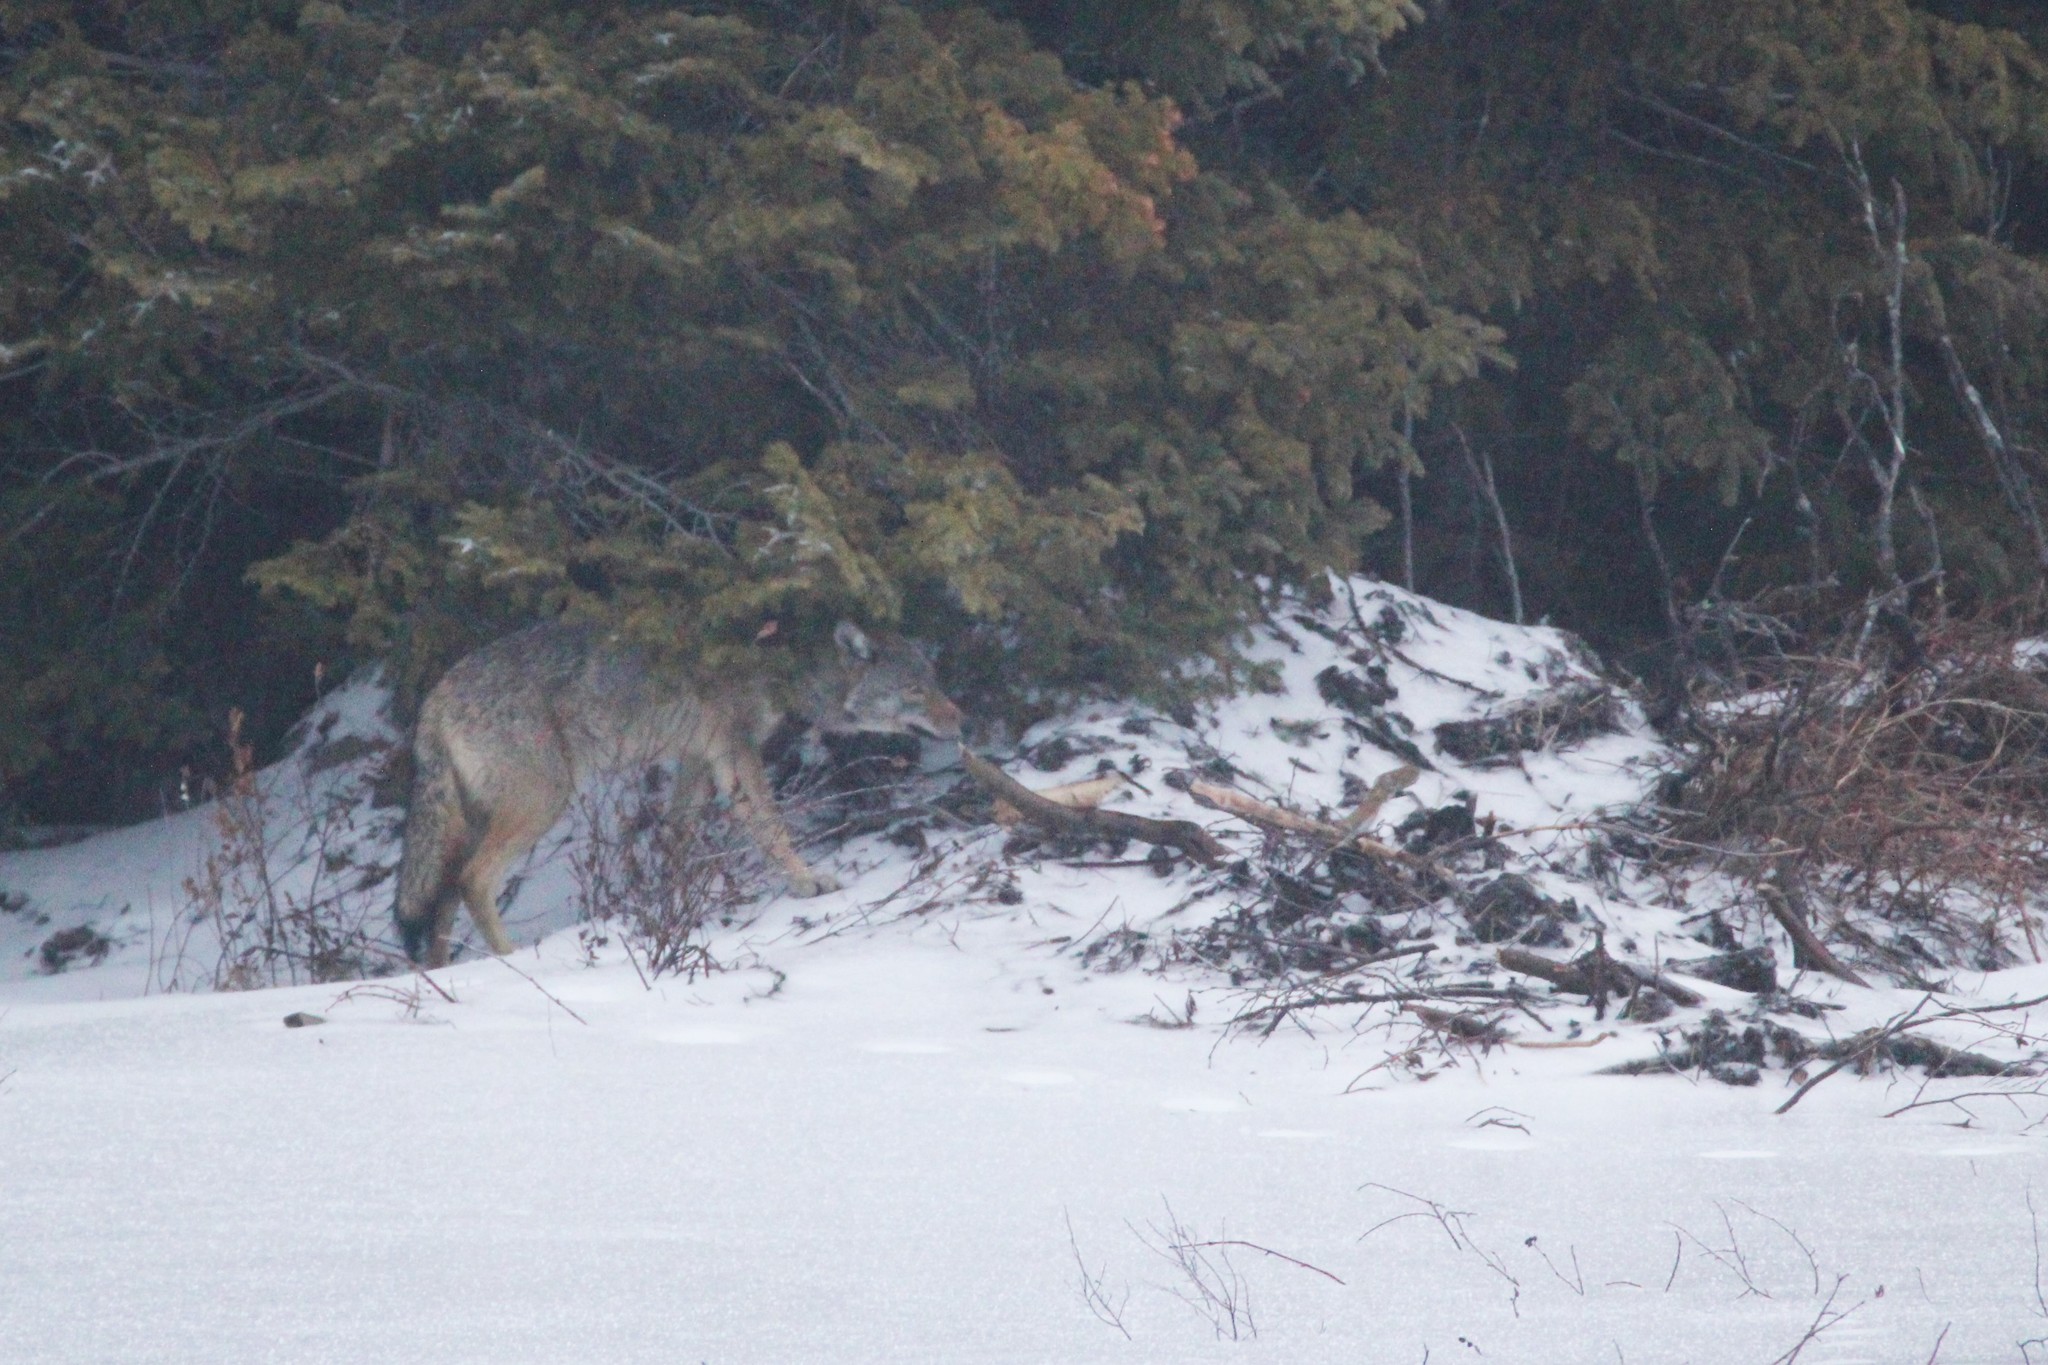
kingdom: Animalia
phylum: Chordata
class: Mammalia
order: Carnivora
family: Canidae
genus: Canis
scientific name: Canis lycaon
